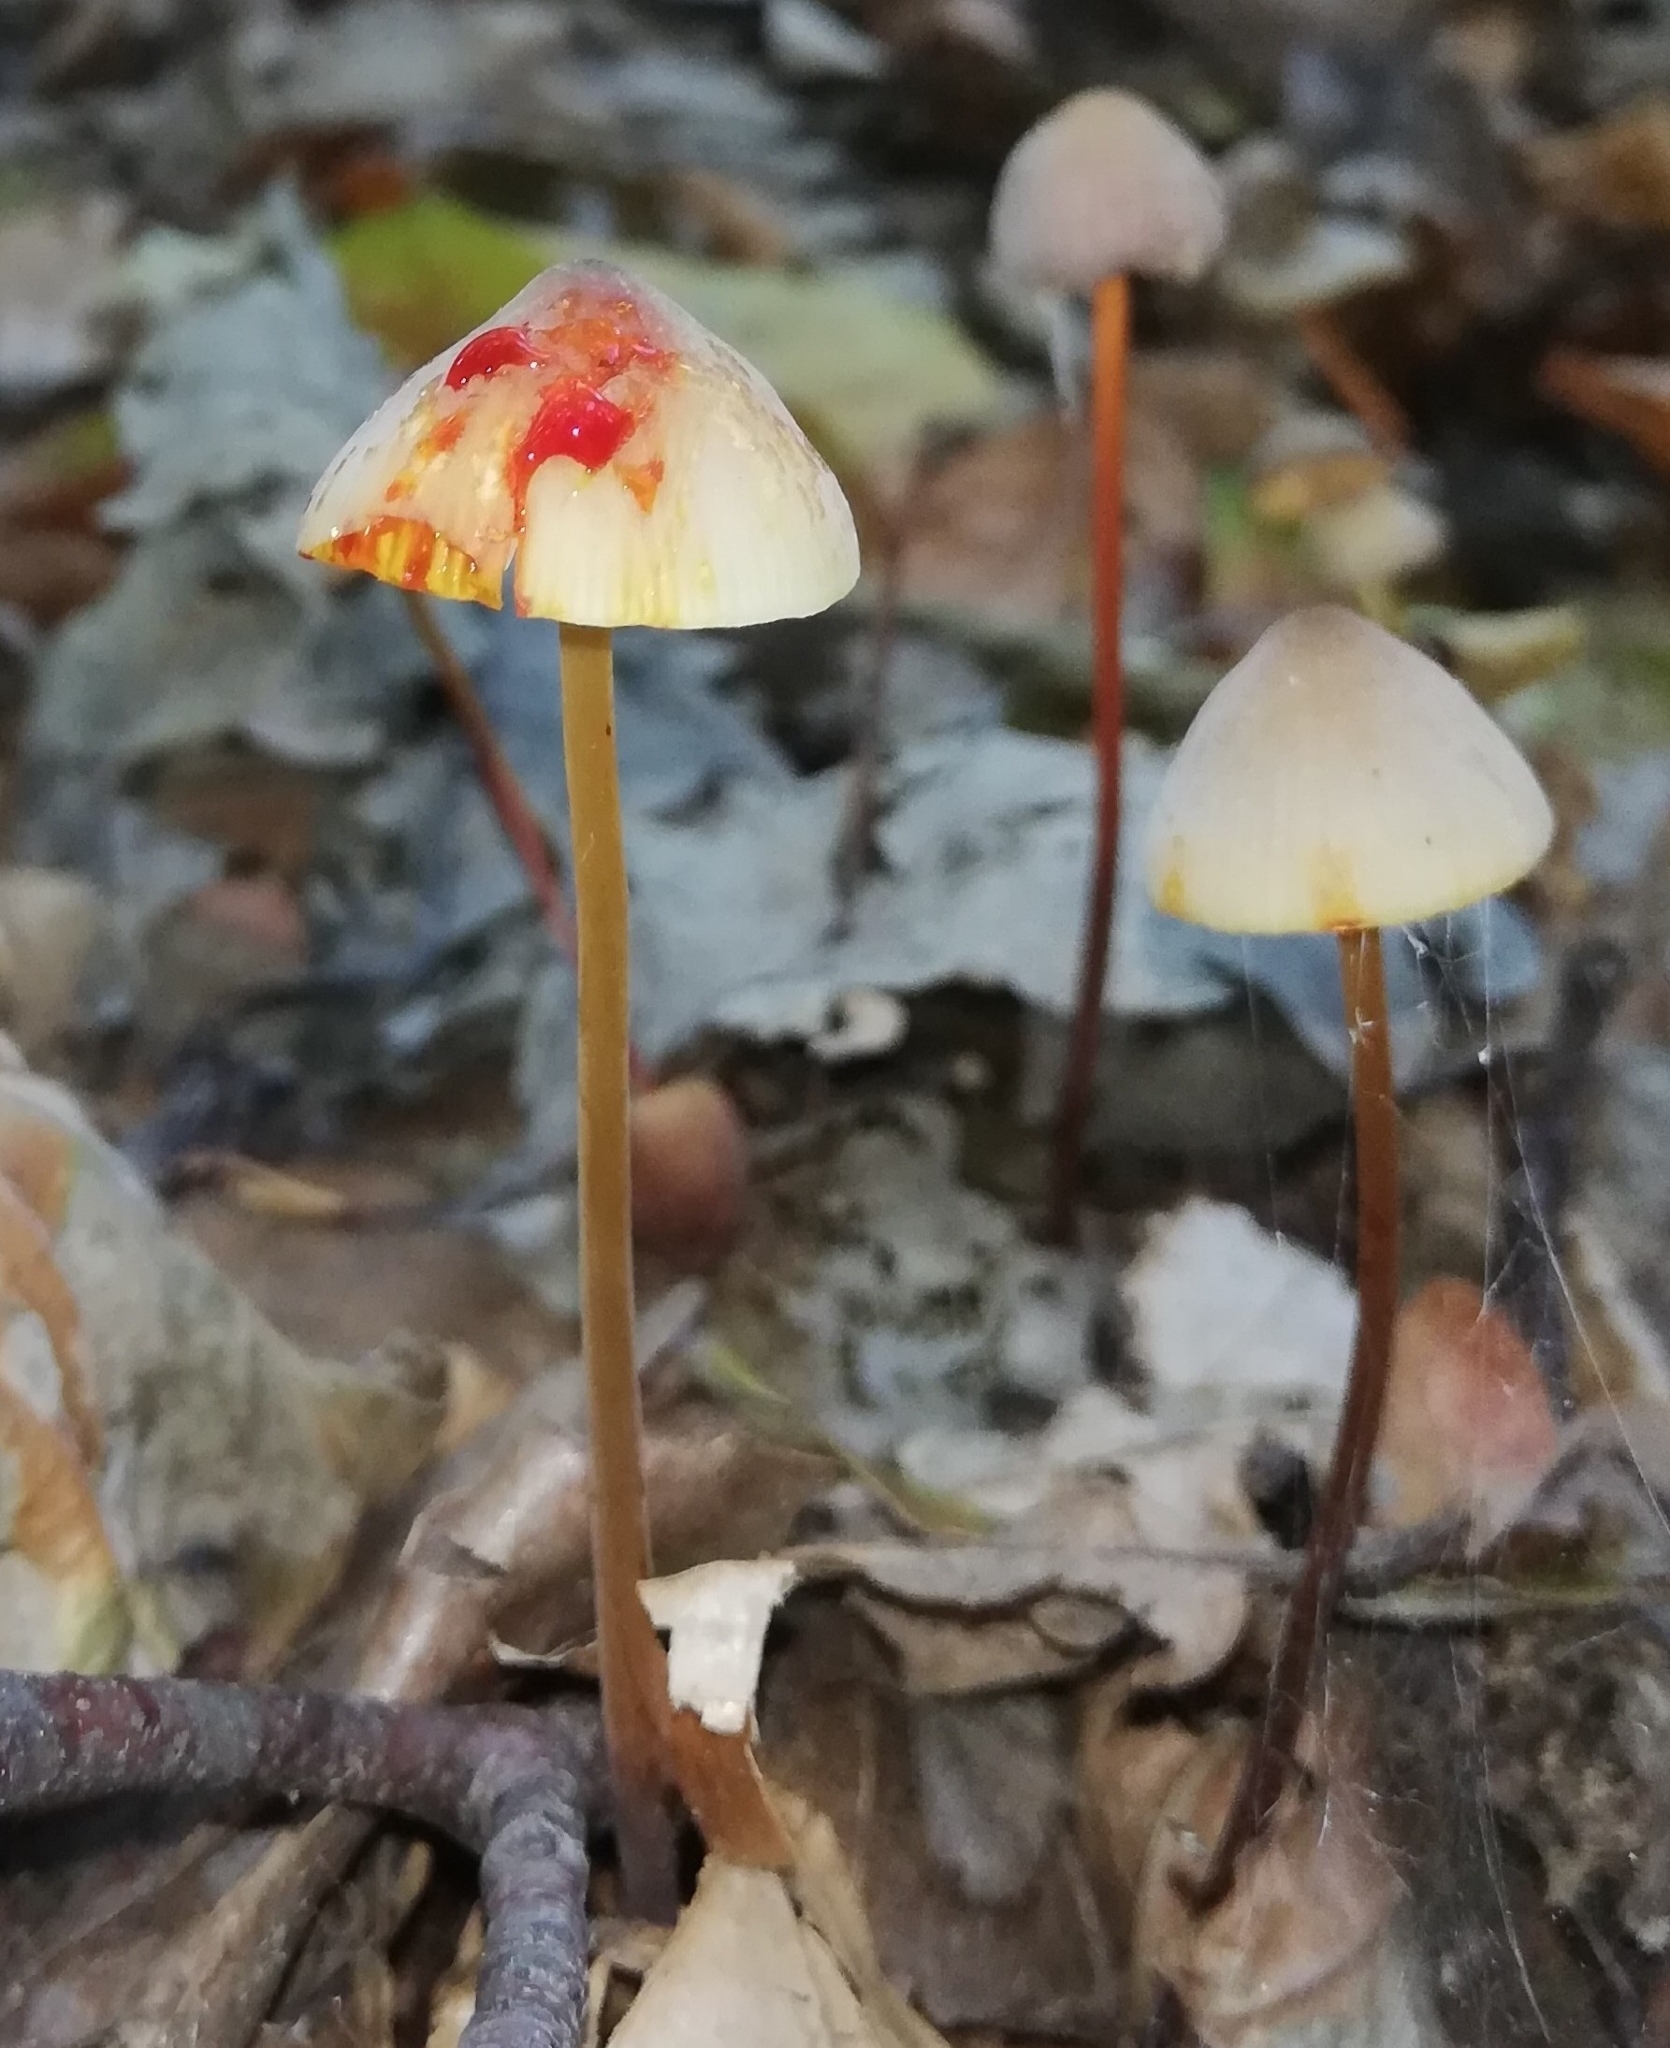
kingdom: Fungi
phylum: Basidiomycota
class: Agaricomycetes
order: Agaricales
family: Mycenaceae
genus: Mycena
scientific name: Mycena crocata
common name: Saffrondrop bonnet
